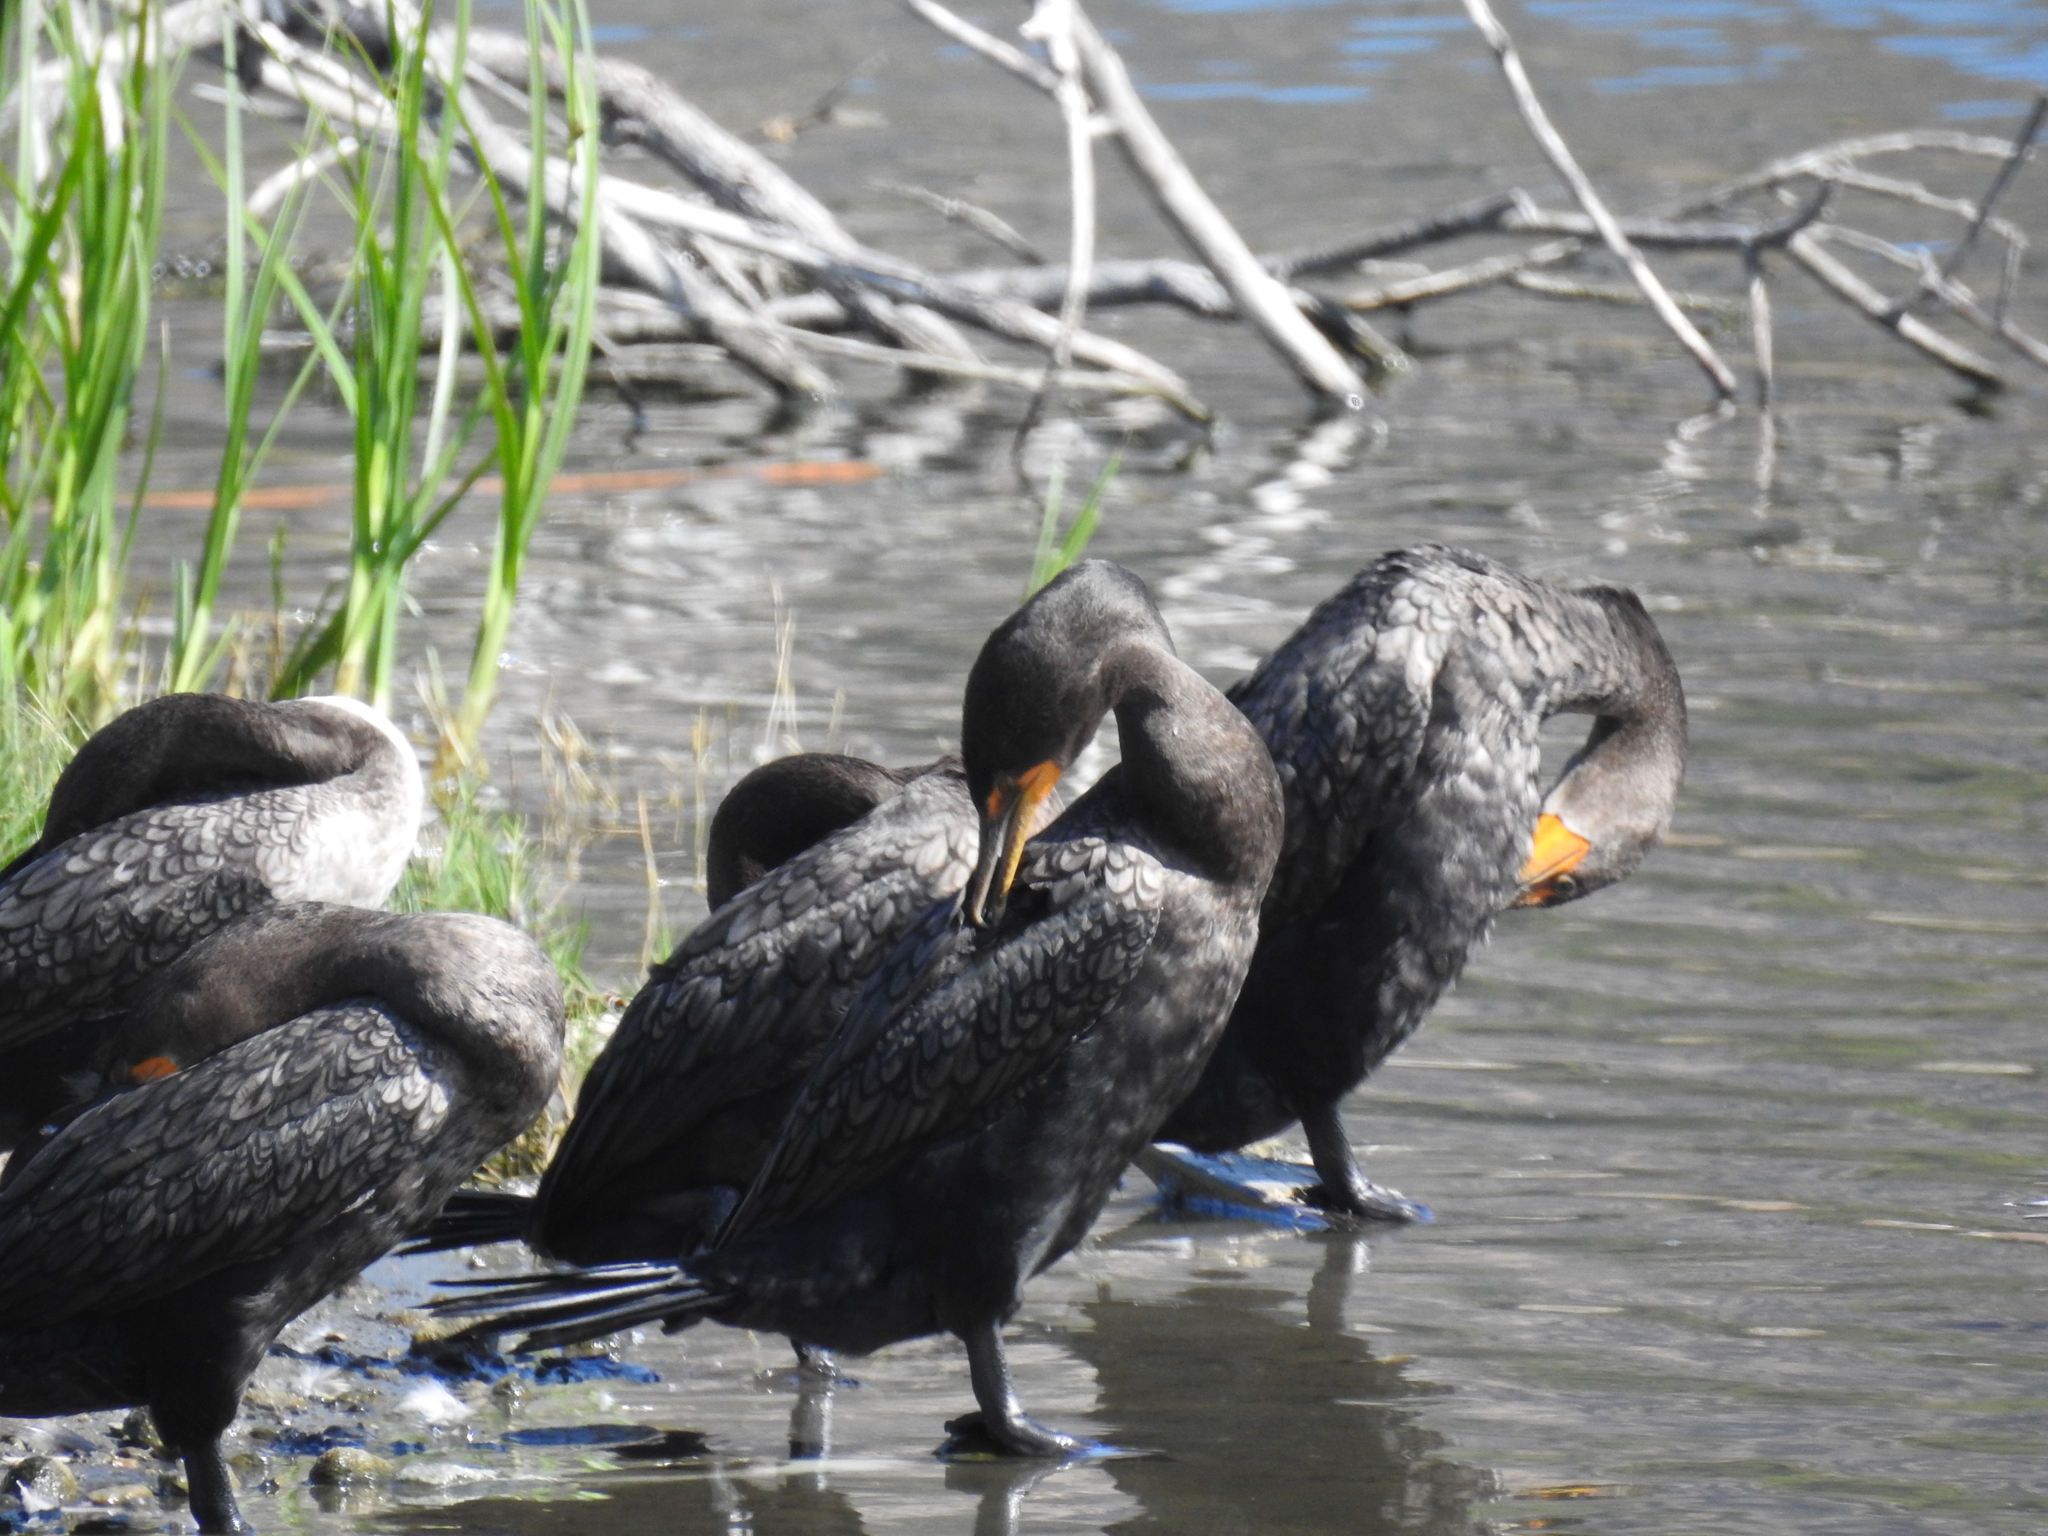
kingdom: Animalia
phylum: Chordata
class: Aves
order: Suliformes
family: Phalacrocoracidae
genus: Phalacrocorax
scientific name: Phalacrocorax auritus
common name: Double-crested cormorant
